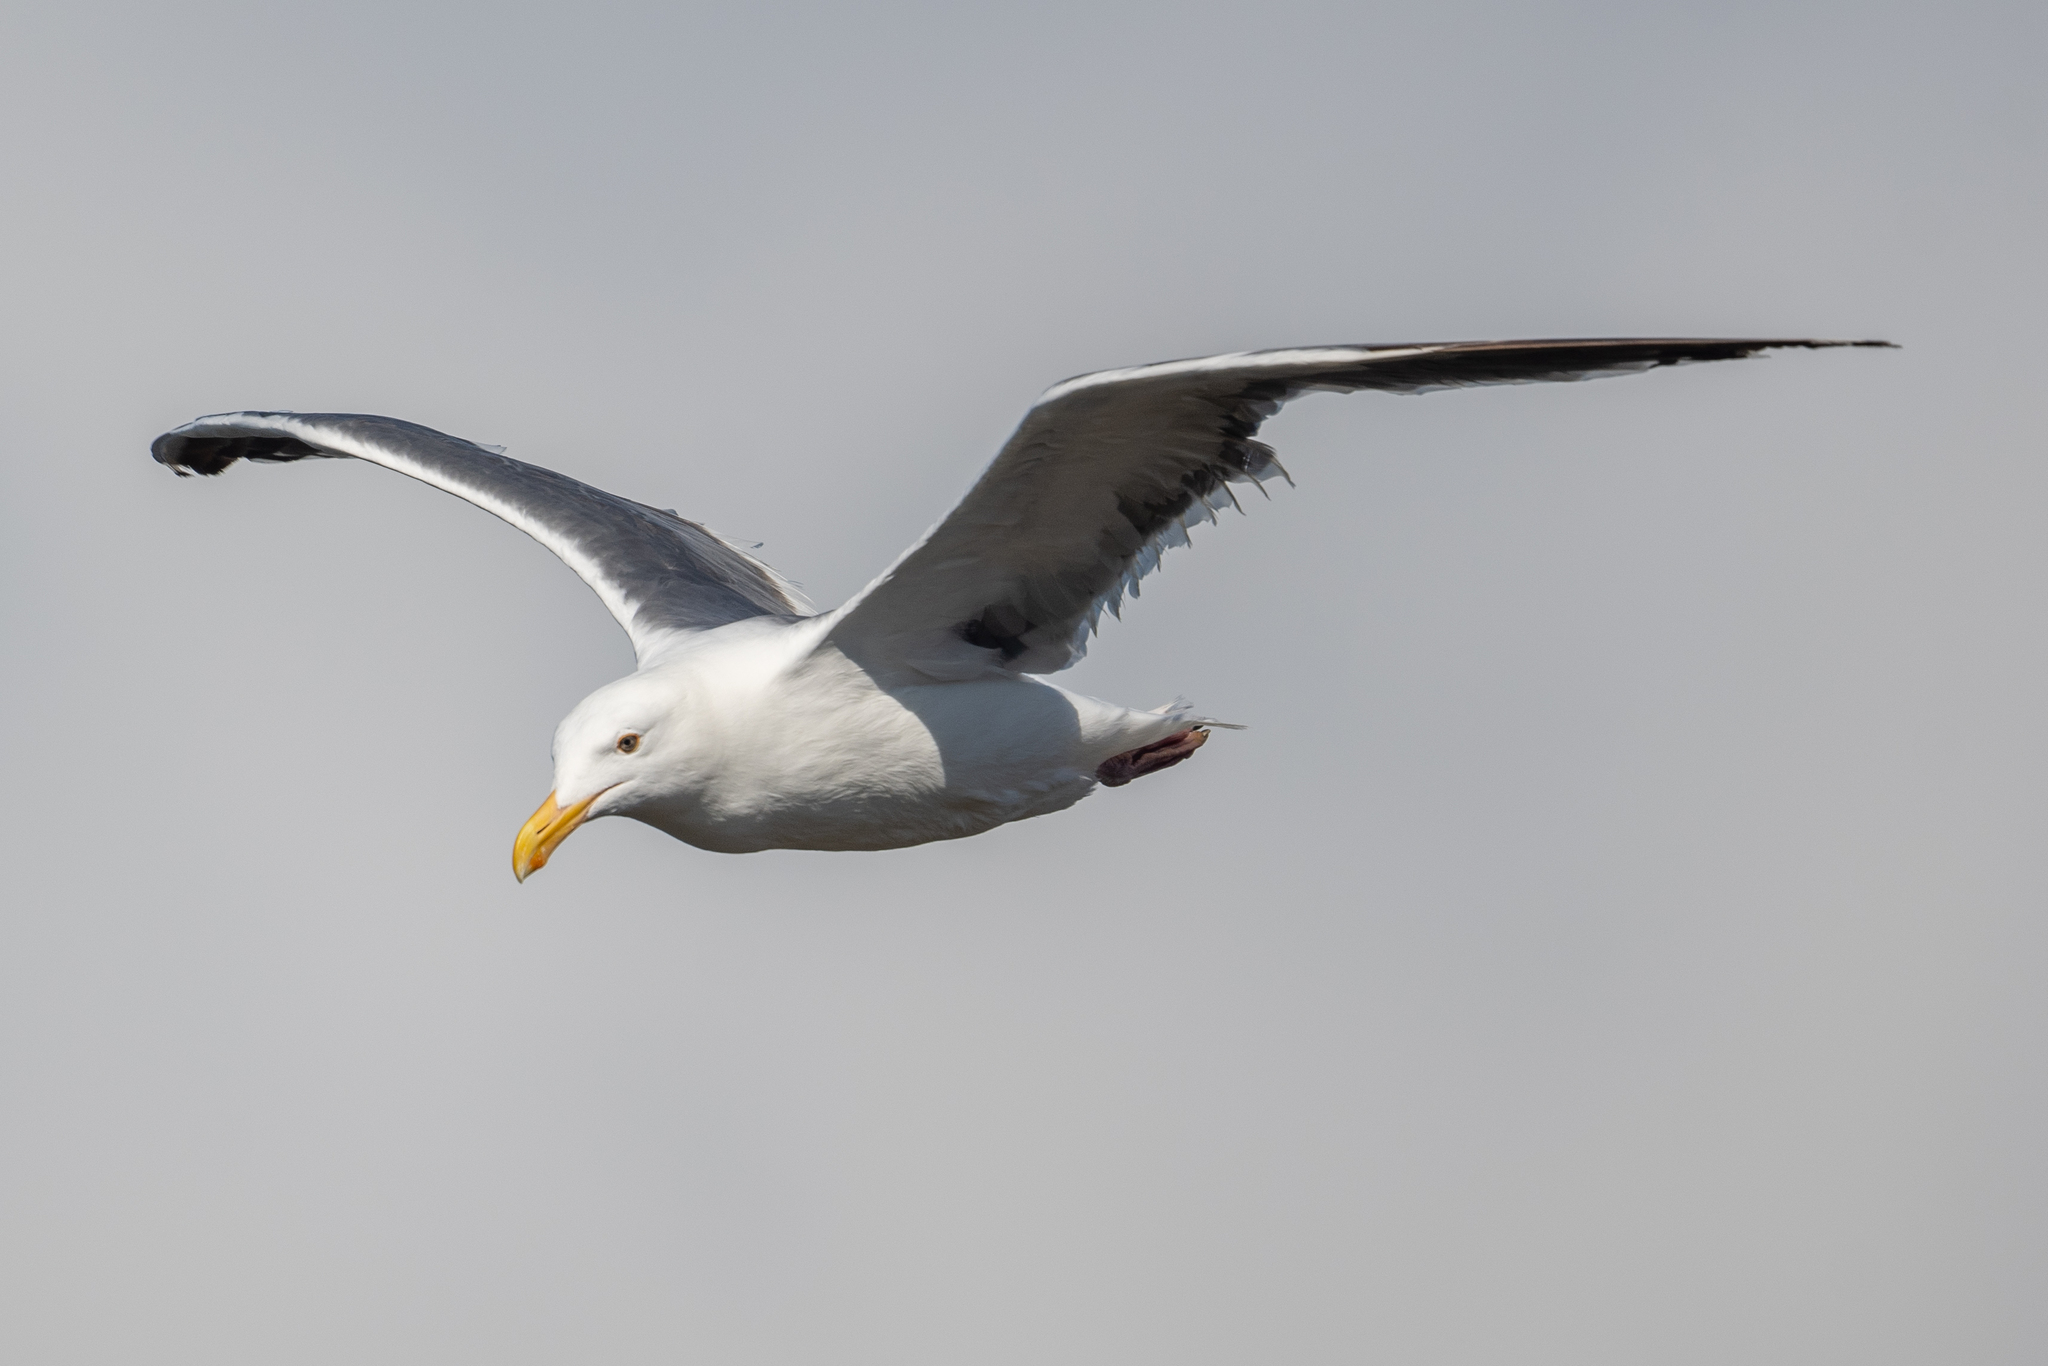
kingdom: Animalia
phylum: Chordata
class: Aves
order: Charadriiformes
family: Laridae
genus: Larus
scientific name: Larus occidentalis
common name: Western gull
